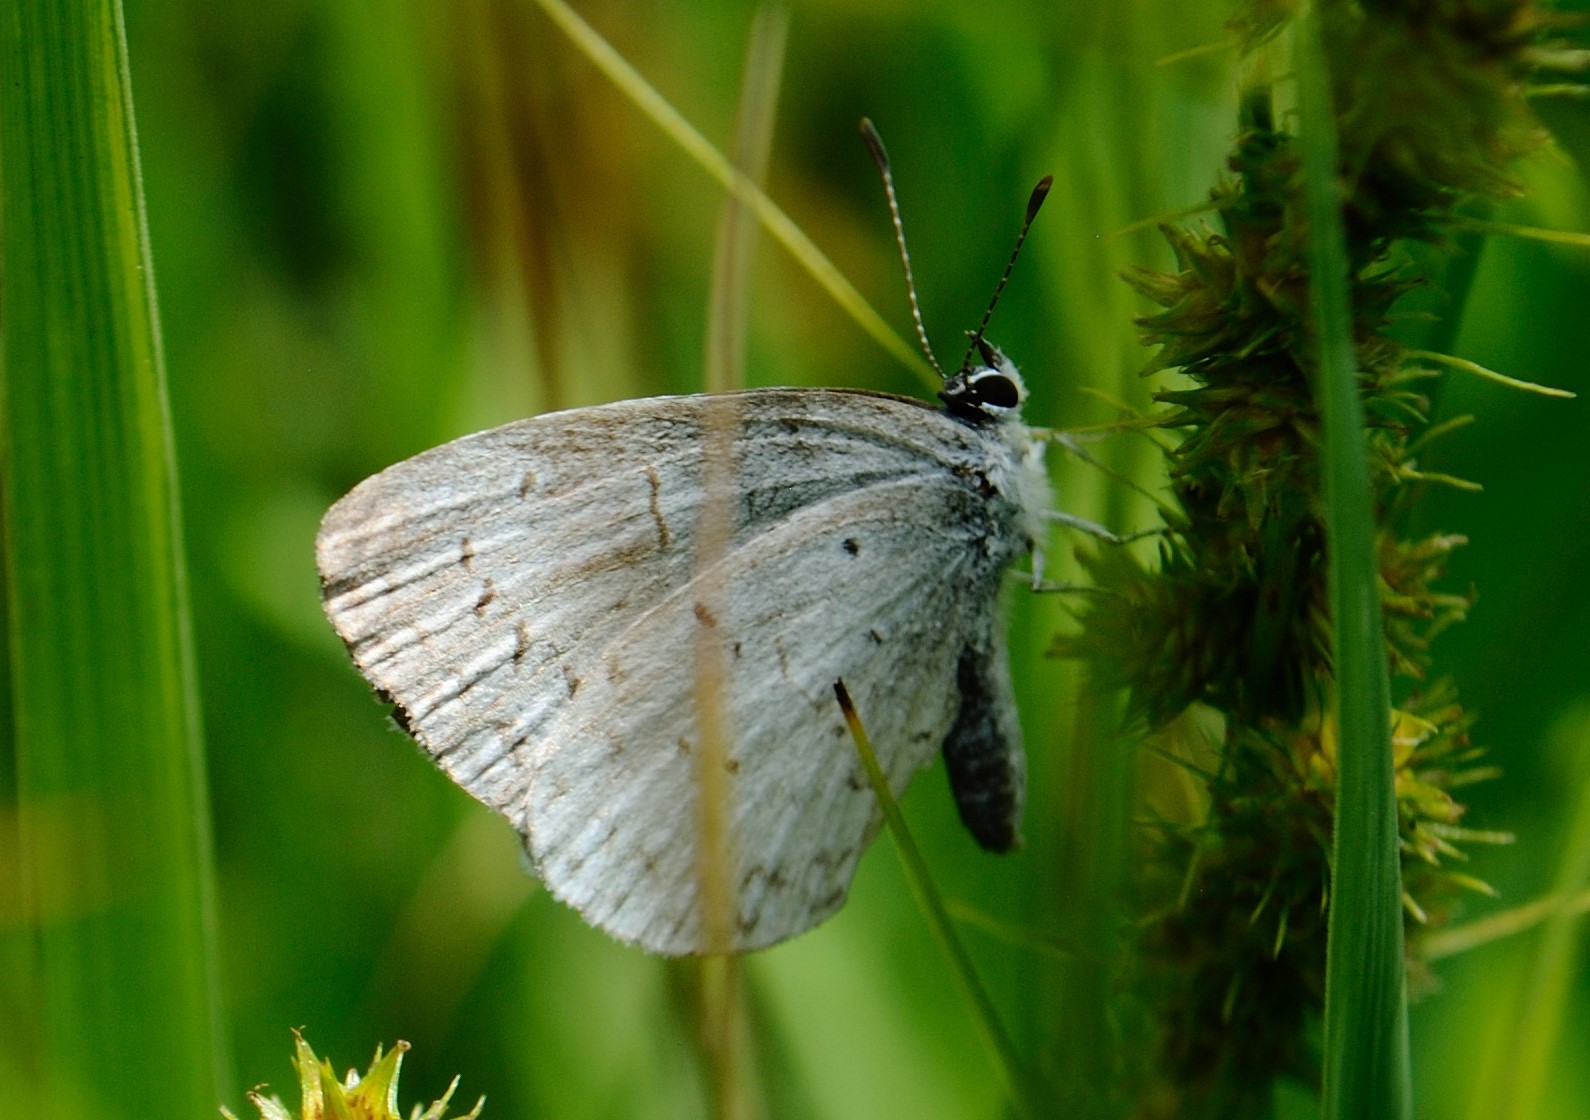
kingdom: Animalia
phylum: Arthropoda
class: Insecta
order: Lepidoptera
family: Lycaenidae
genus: Cyaniris
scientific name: Cyaniris neglecta
